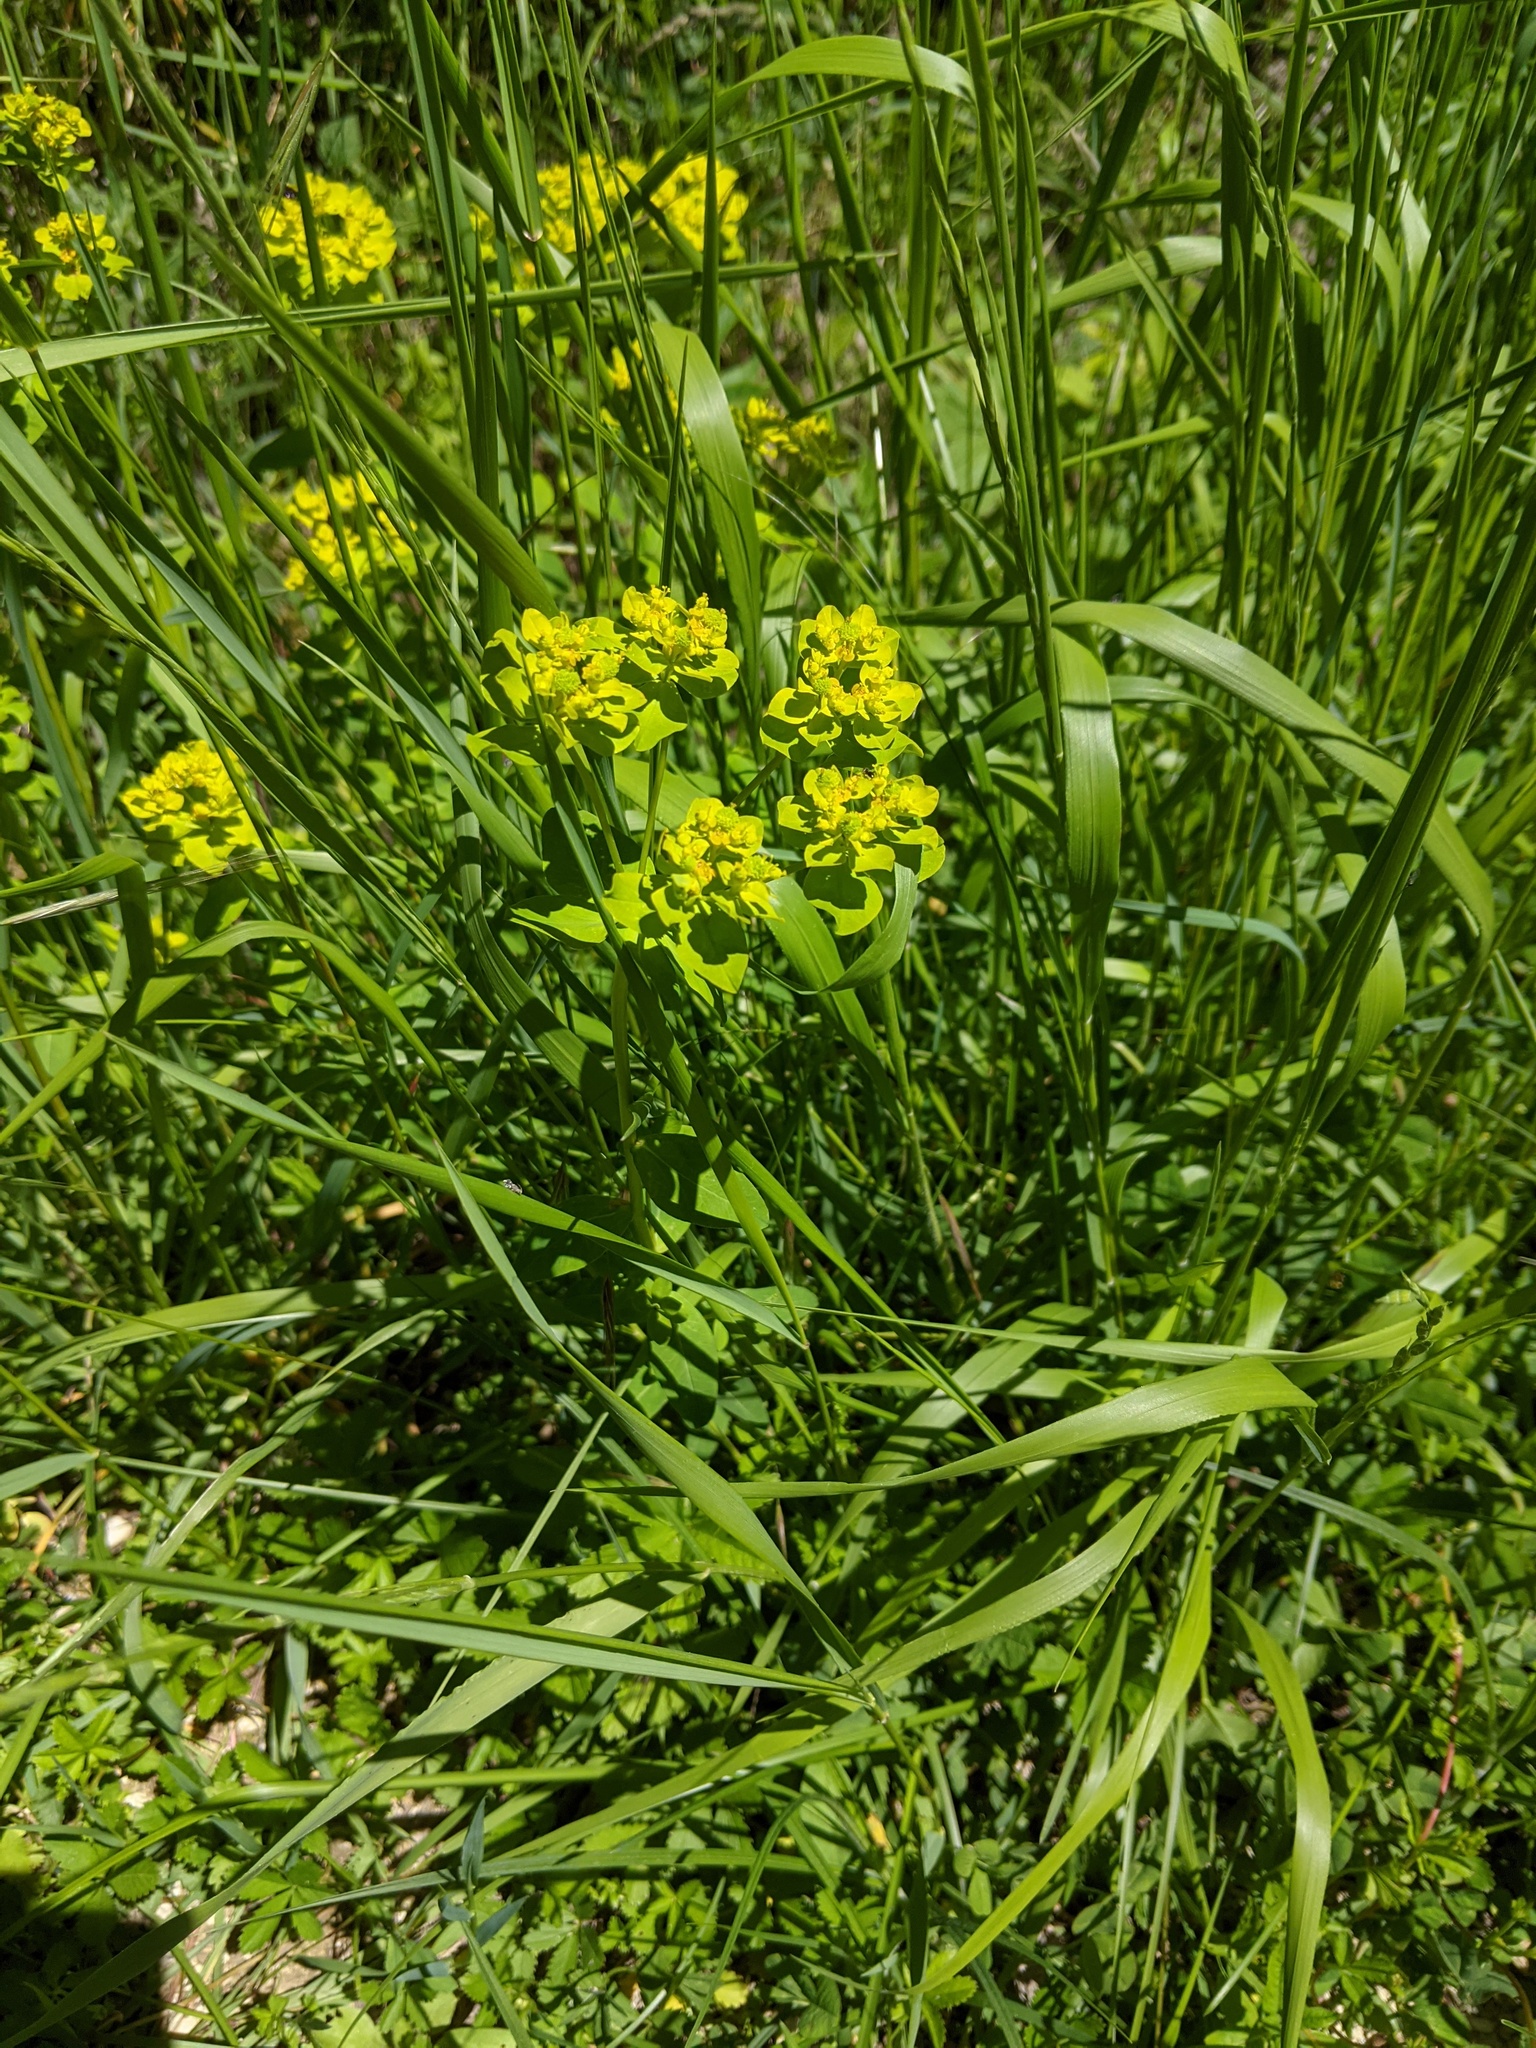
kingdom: Plantae
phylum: Tracheophyta
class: Magnoliopsida
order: Malpighiales
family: Euphorbiaceae
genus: Euphorbia
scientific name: Euphorbia verrucosa
